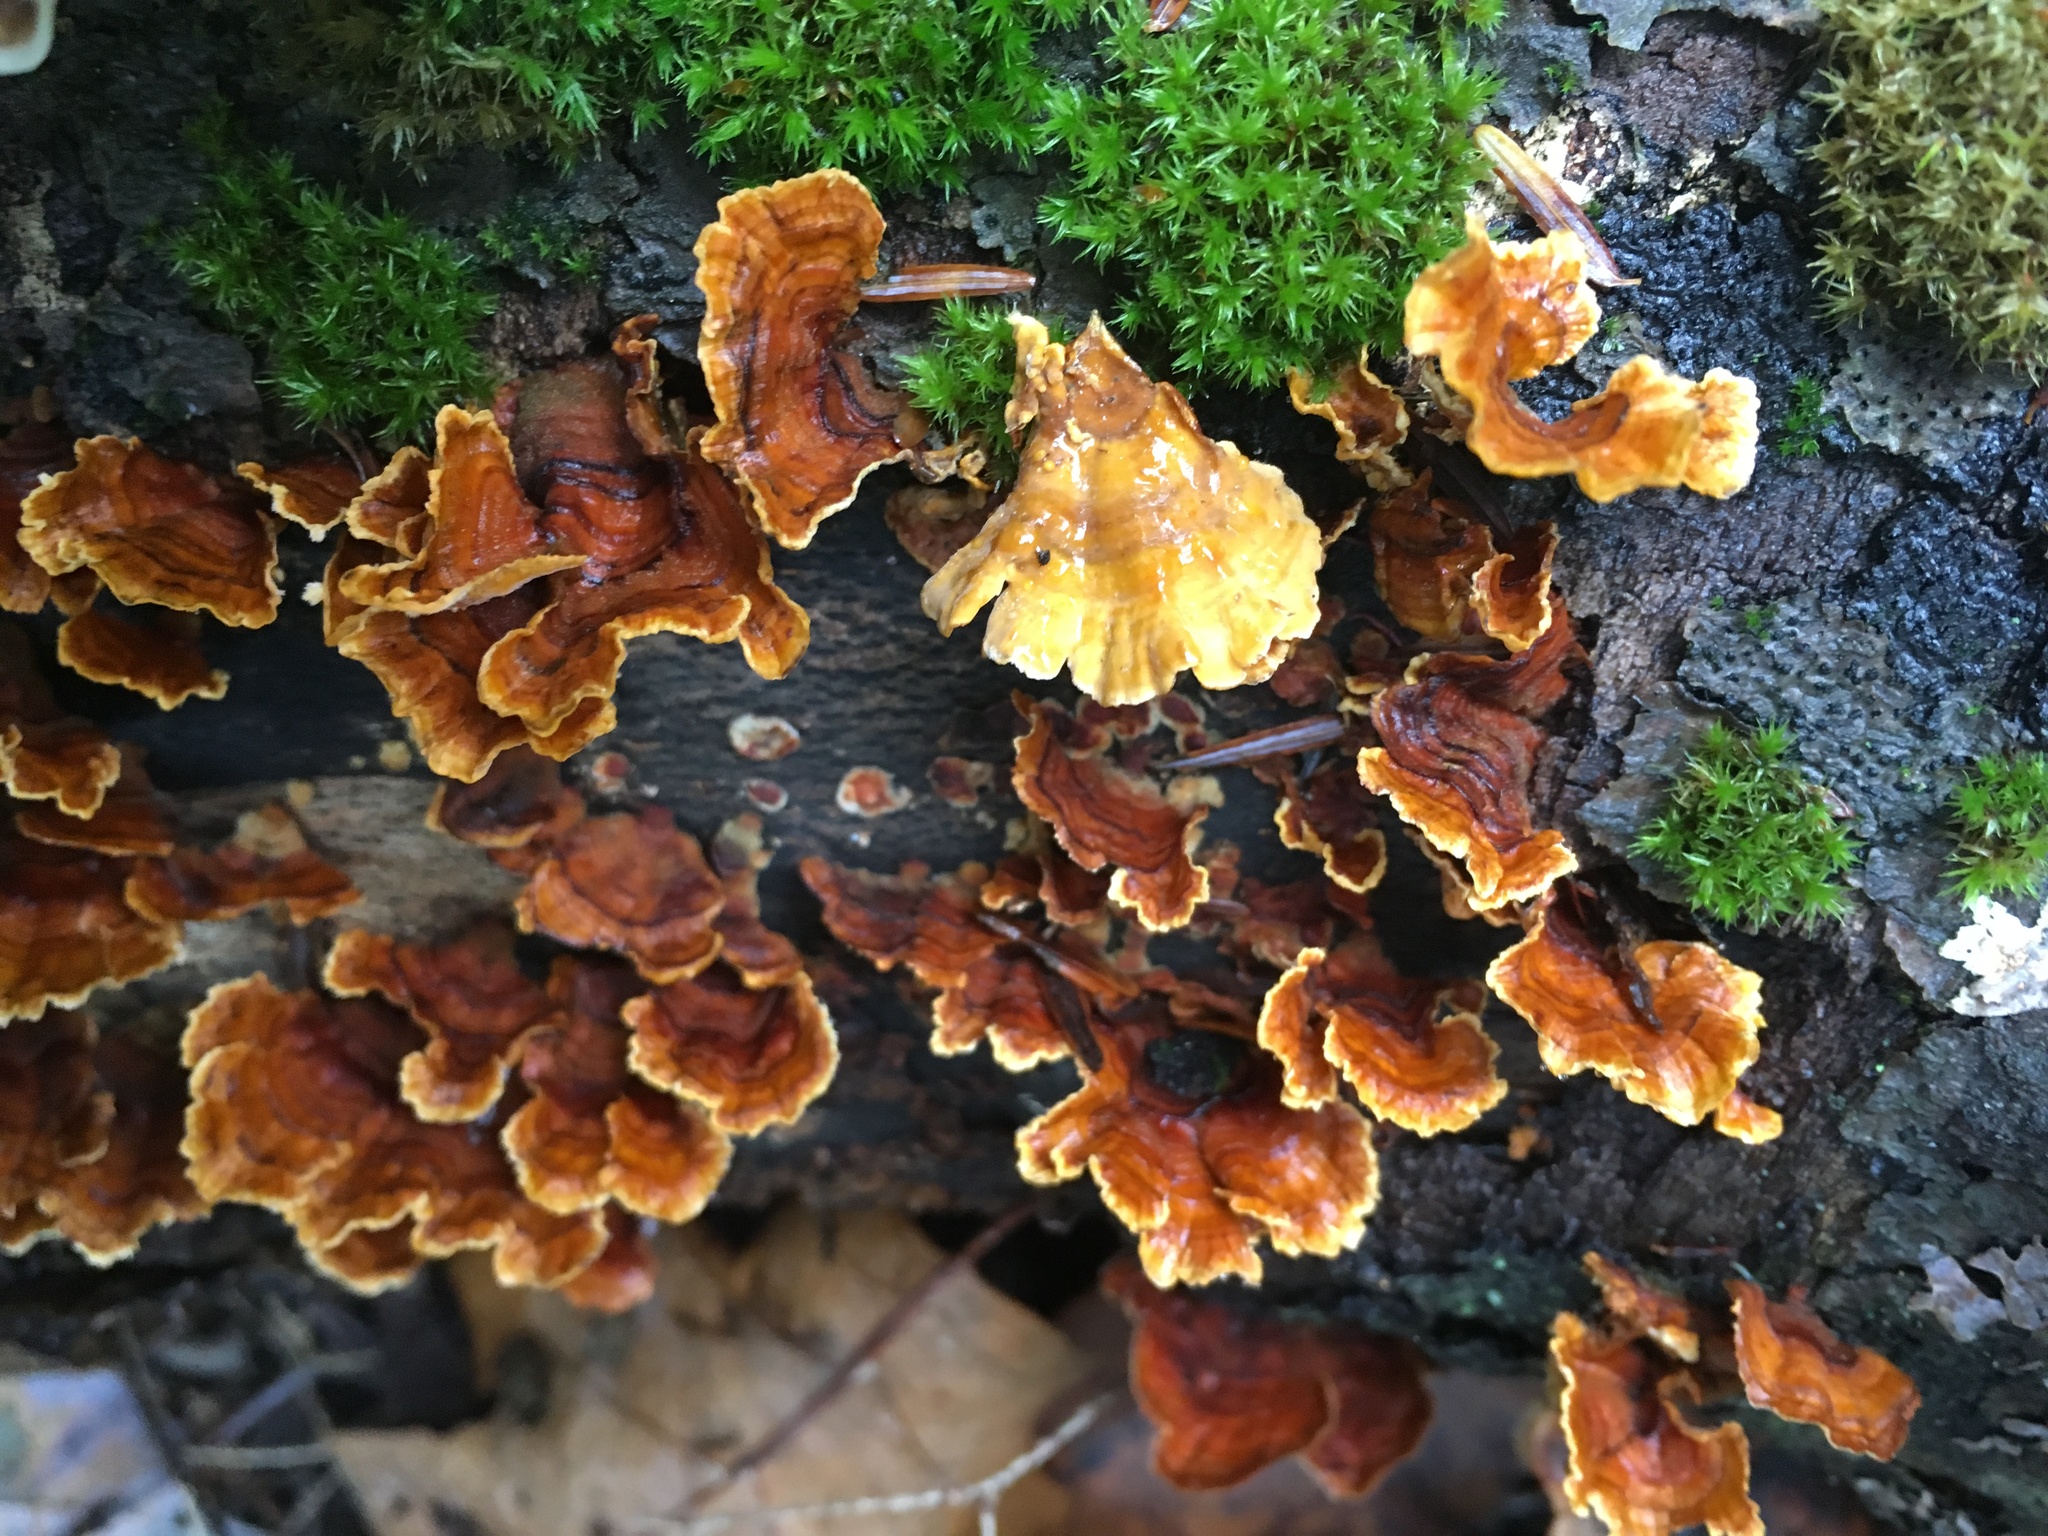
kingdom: Fungi
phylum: Basidiomycota
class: Agaricomycetes
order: Polyporales
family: Polyporaceae
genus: Trametes
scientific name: Trametes versicolor
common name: Turkeytail
